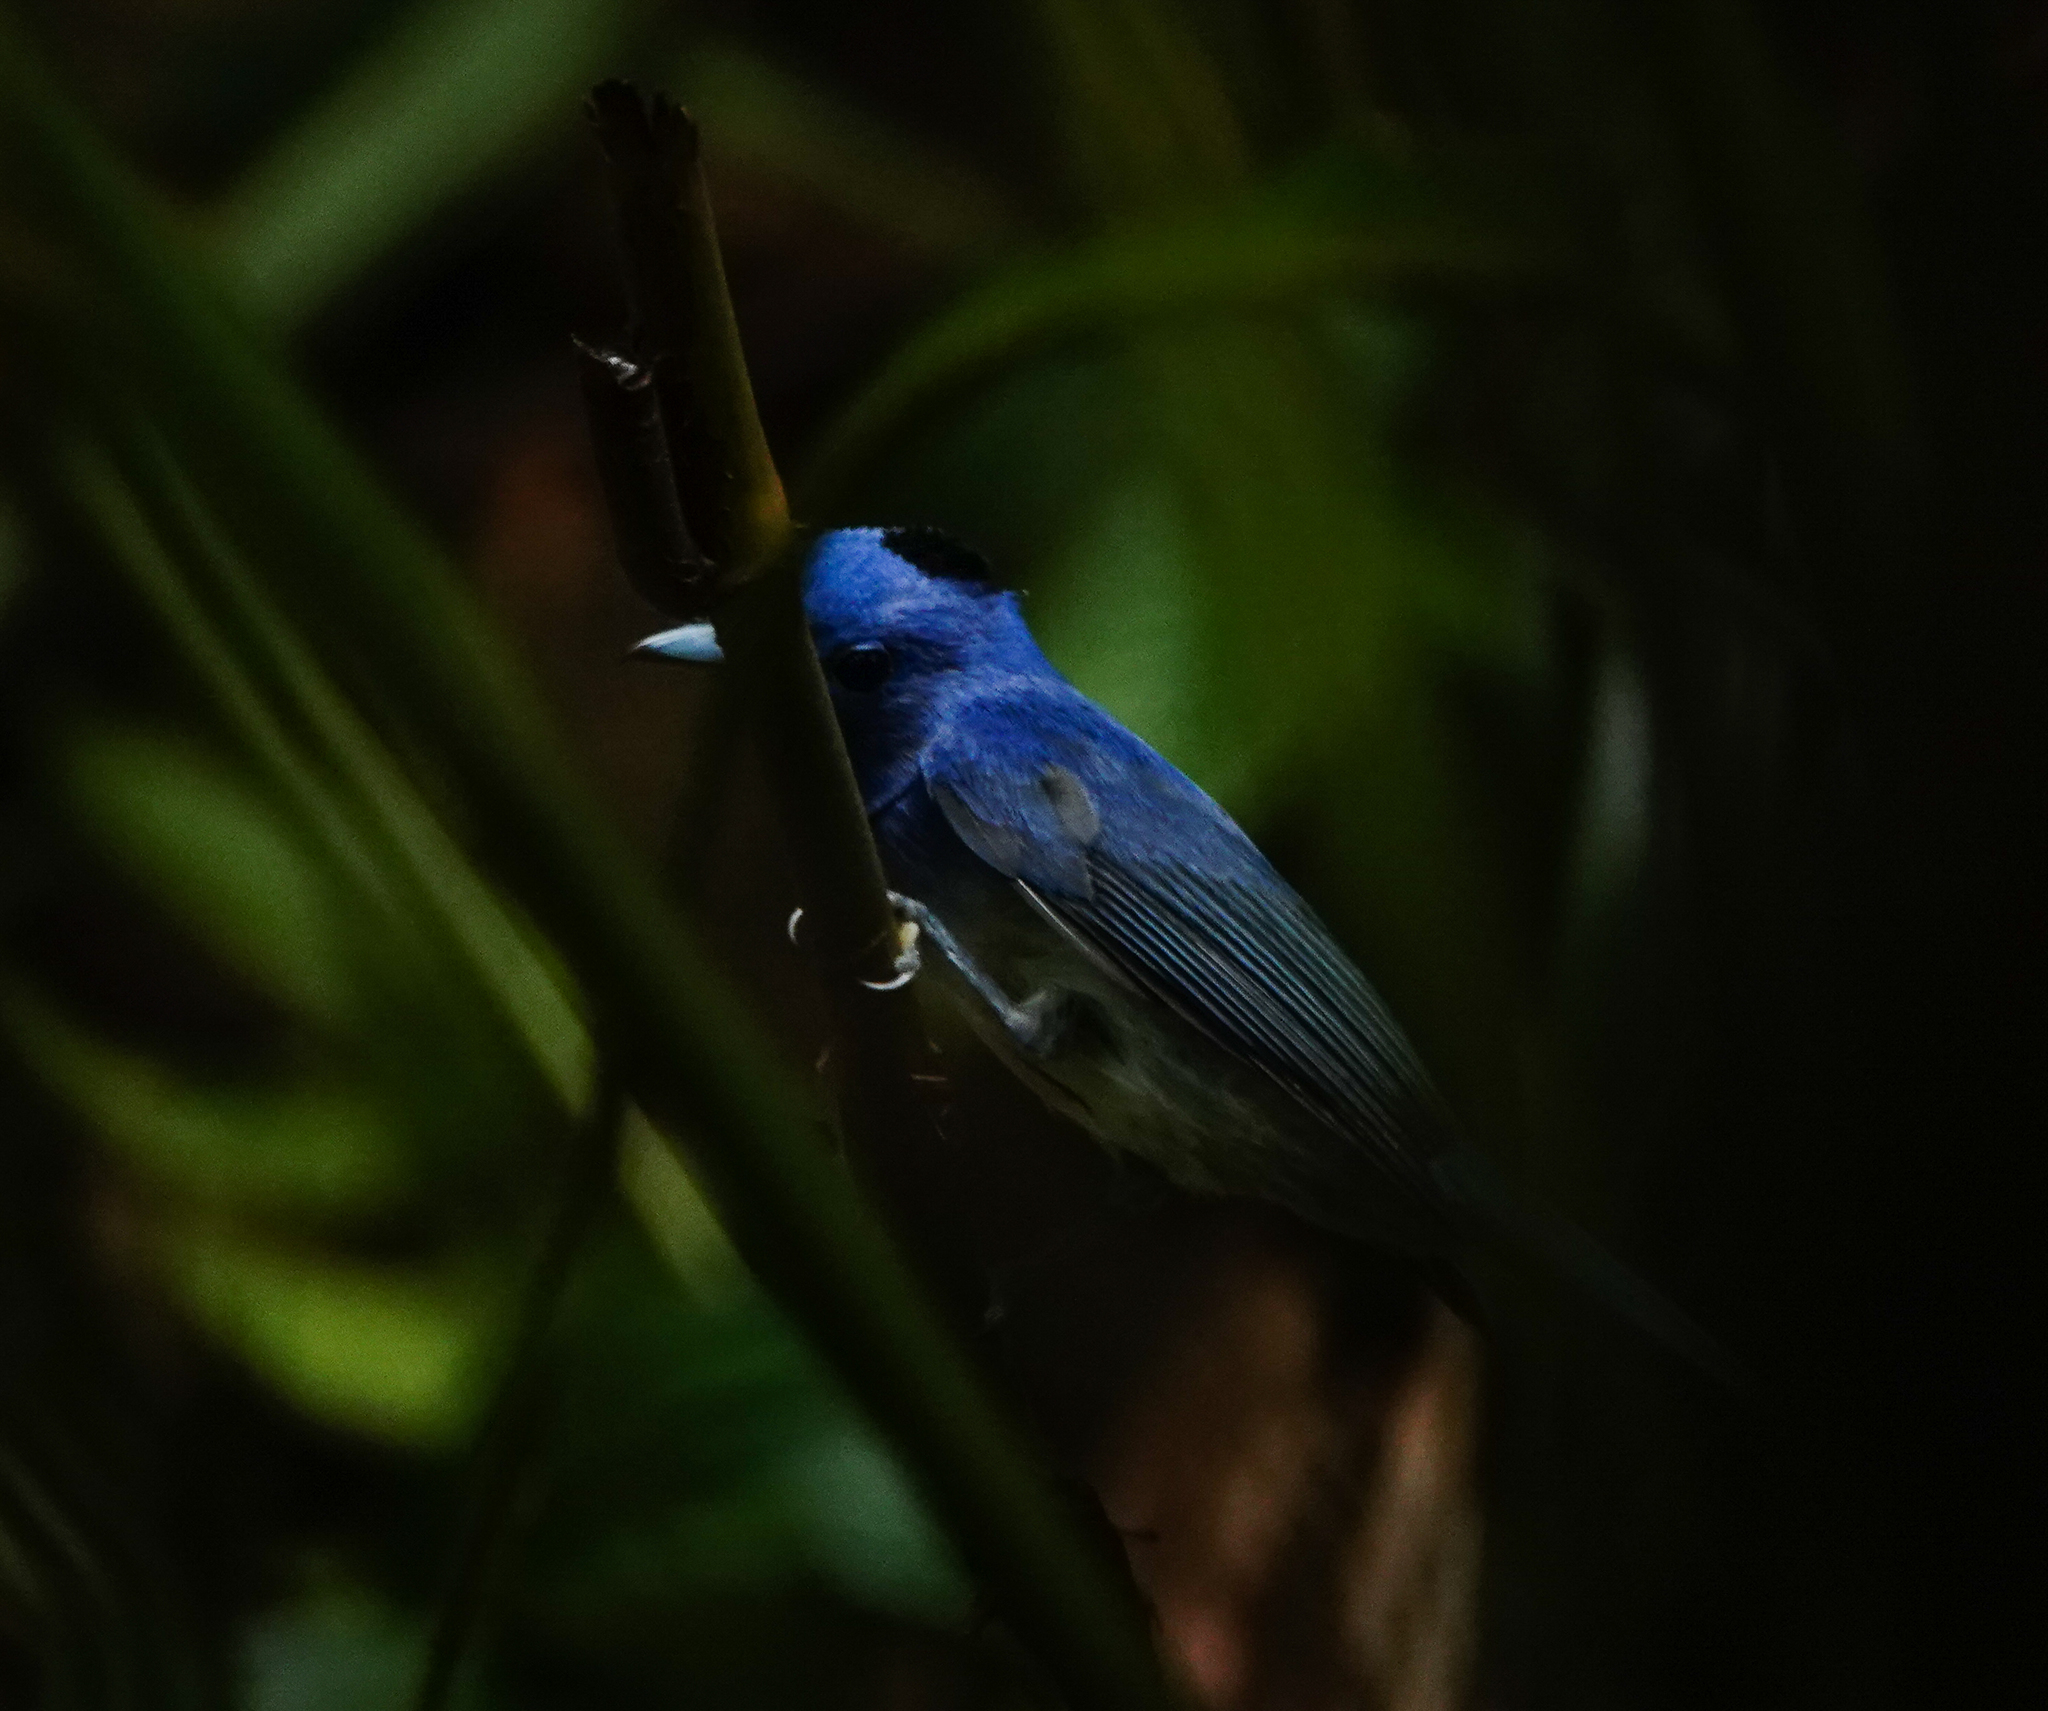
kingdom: Animalia
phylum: Chordata
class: Aves
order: Passeriformes
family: Monarchidae
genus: Hypothymis
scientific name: Hypothymis azurea
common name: Black-naped monarch
